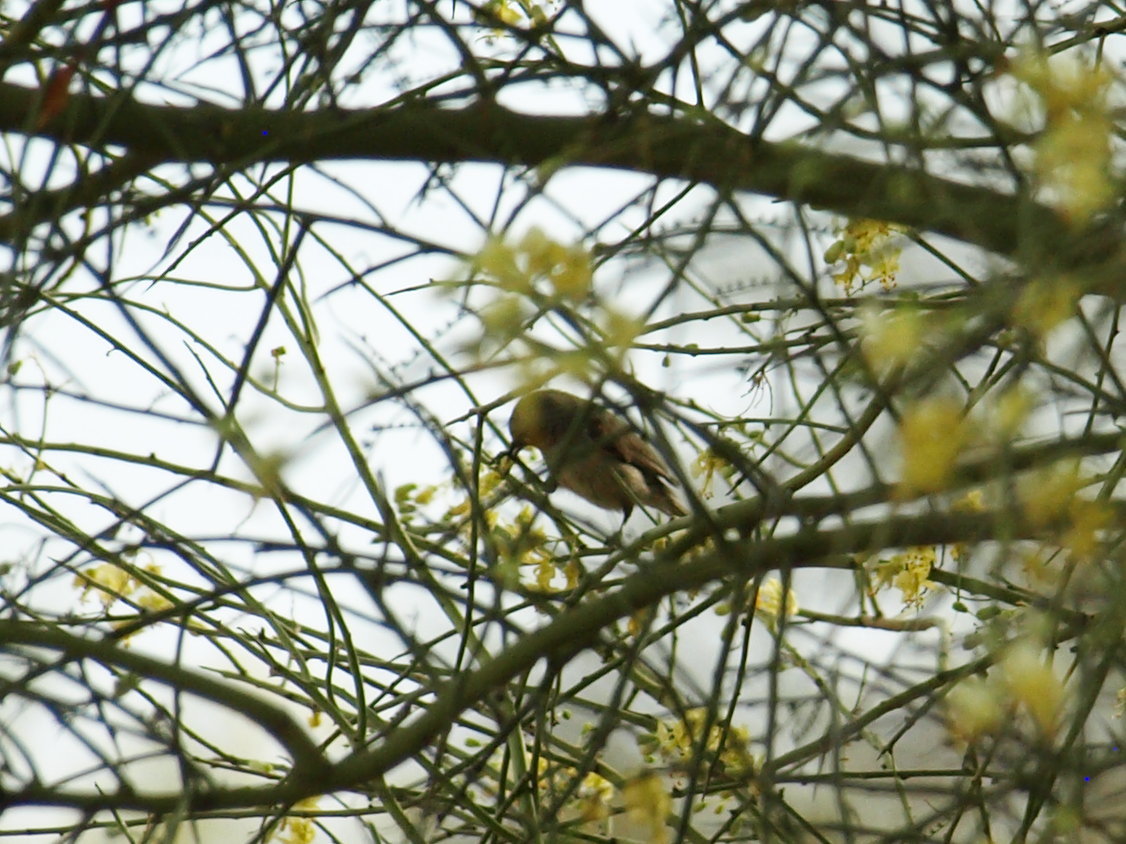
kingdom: Animalia
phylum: Chordata
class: Aves
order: Passeriformes
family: Remizidae
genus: Auriparus
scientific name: Auriparus flaviceps
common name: Verdin
